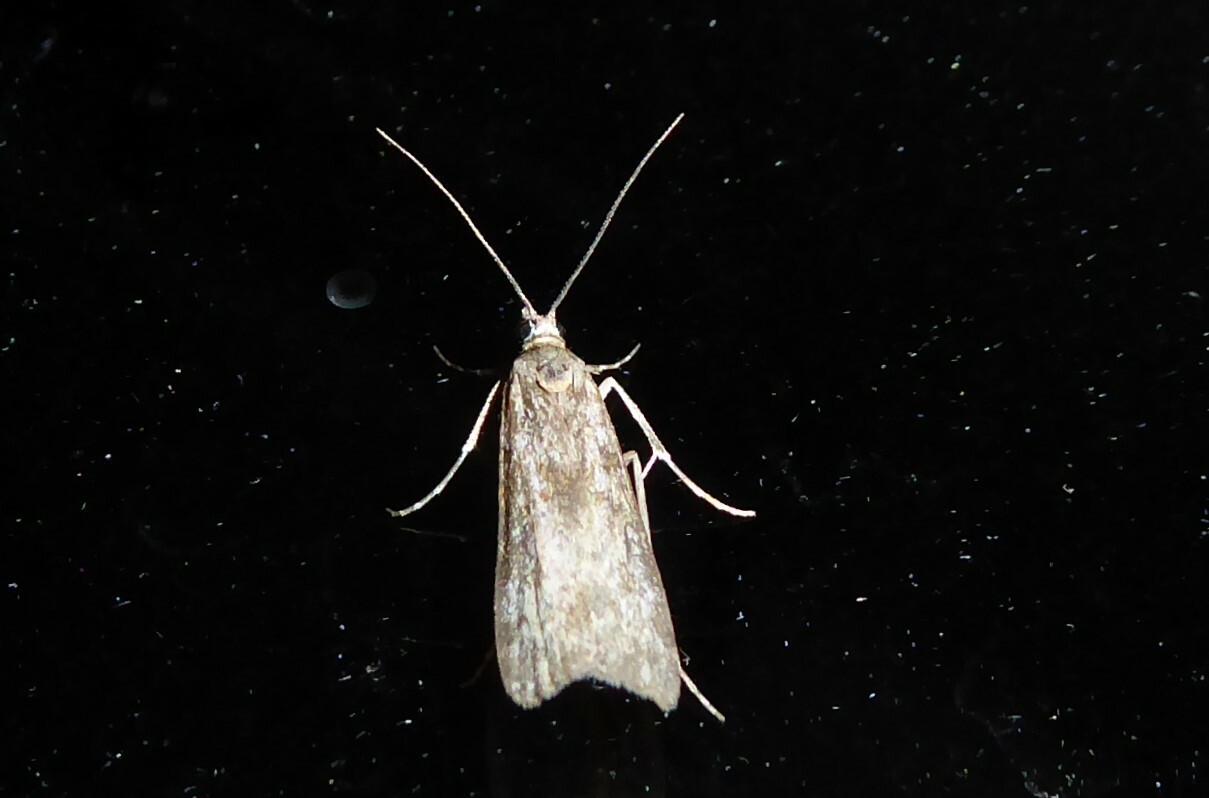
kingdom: Animalia
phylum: Arthropoda
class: Insecta
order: Lepidoptera
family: Crambidae
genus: Eudonia
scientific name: Eudonia leptalea
